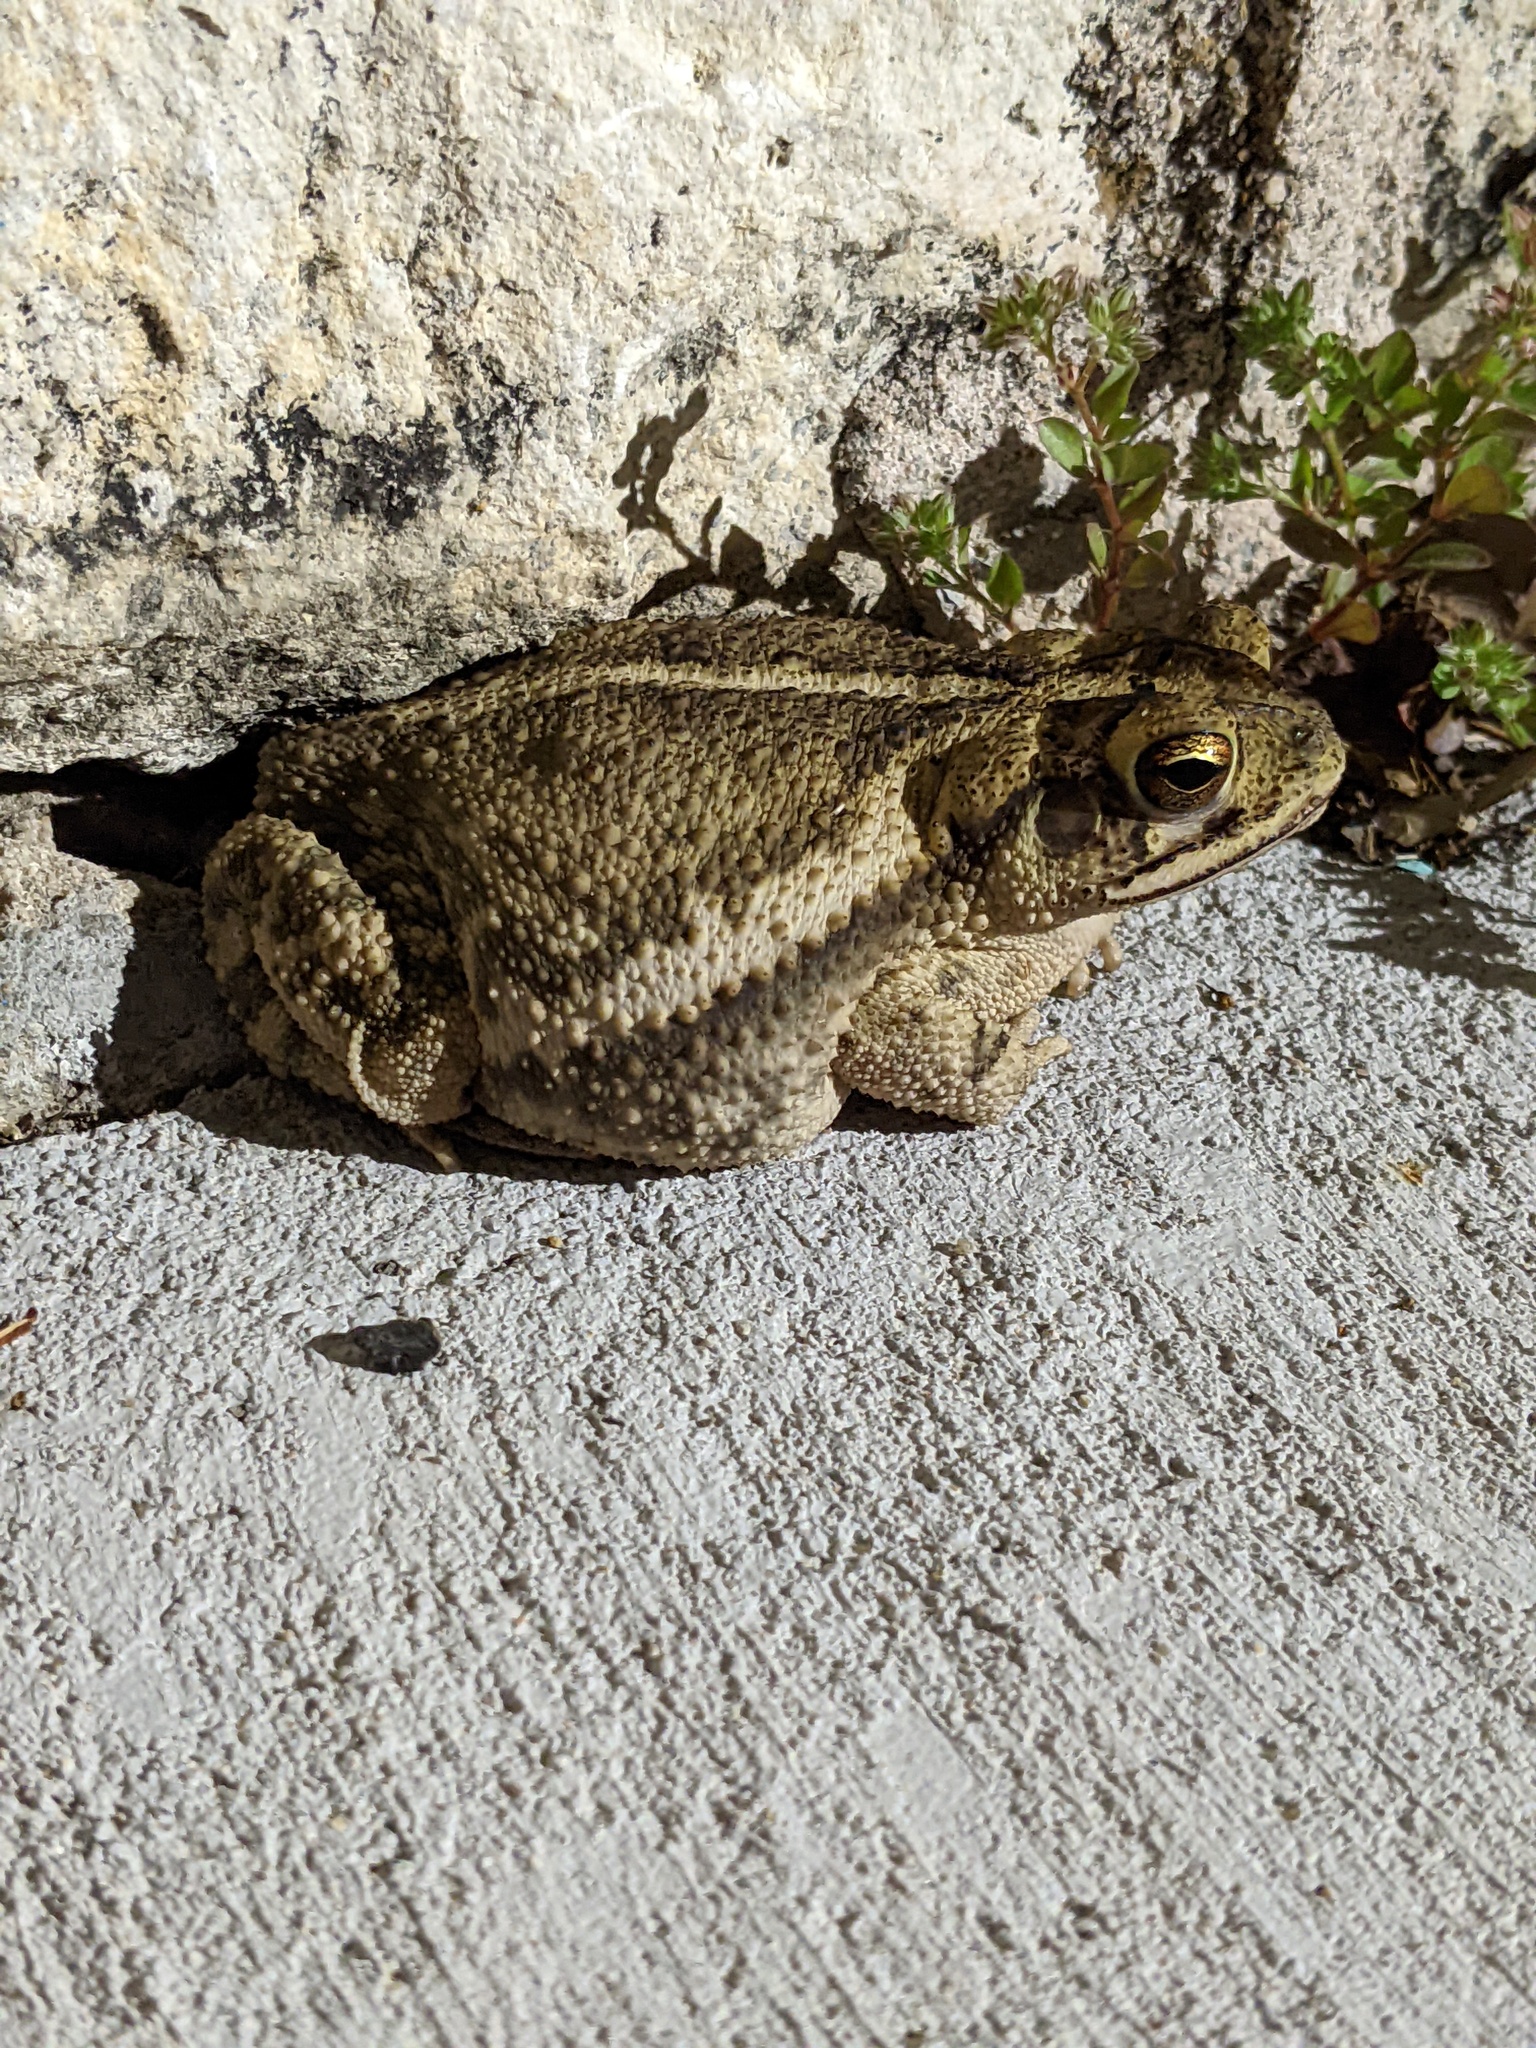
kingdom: Animalia
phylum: Chordata
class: Amphibia
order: Anura
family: Bufonidae
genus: Incilius
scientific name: Incilius nebulifer
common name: Gulf coast toad
